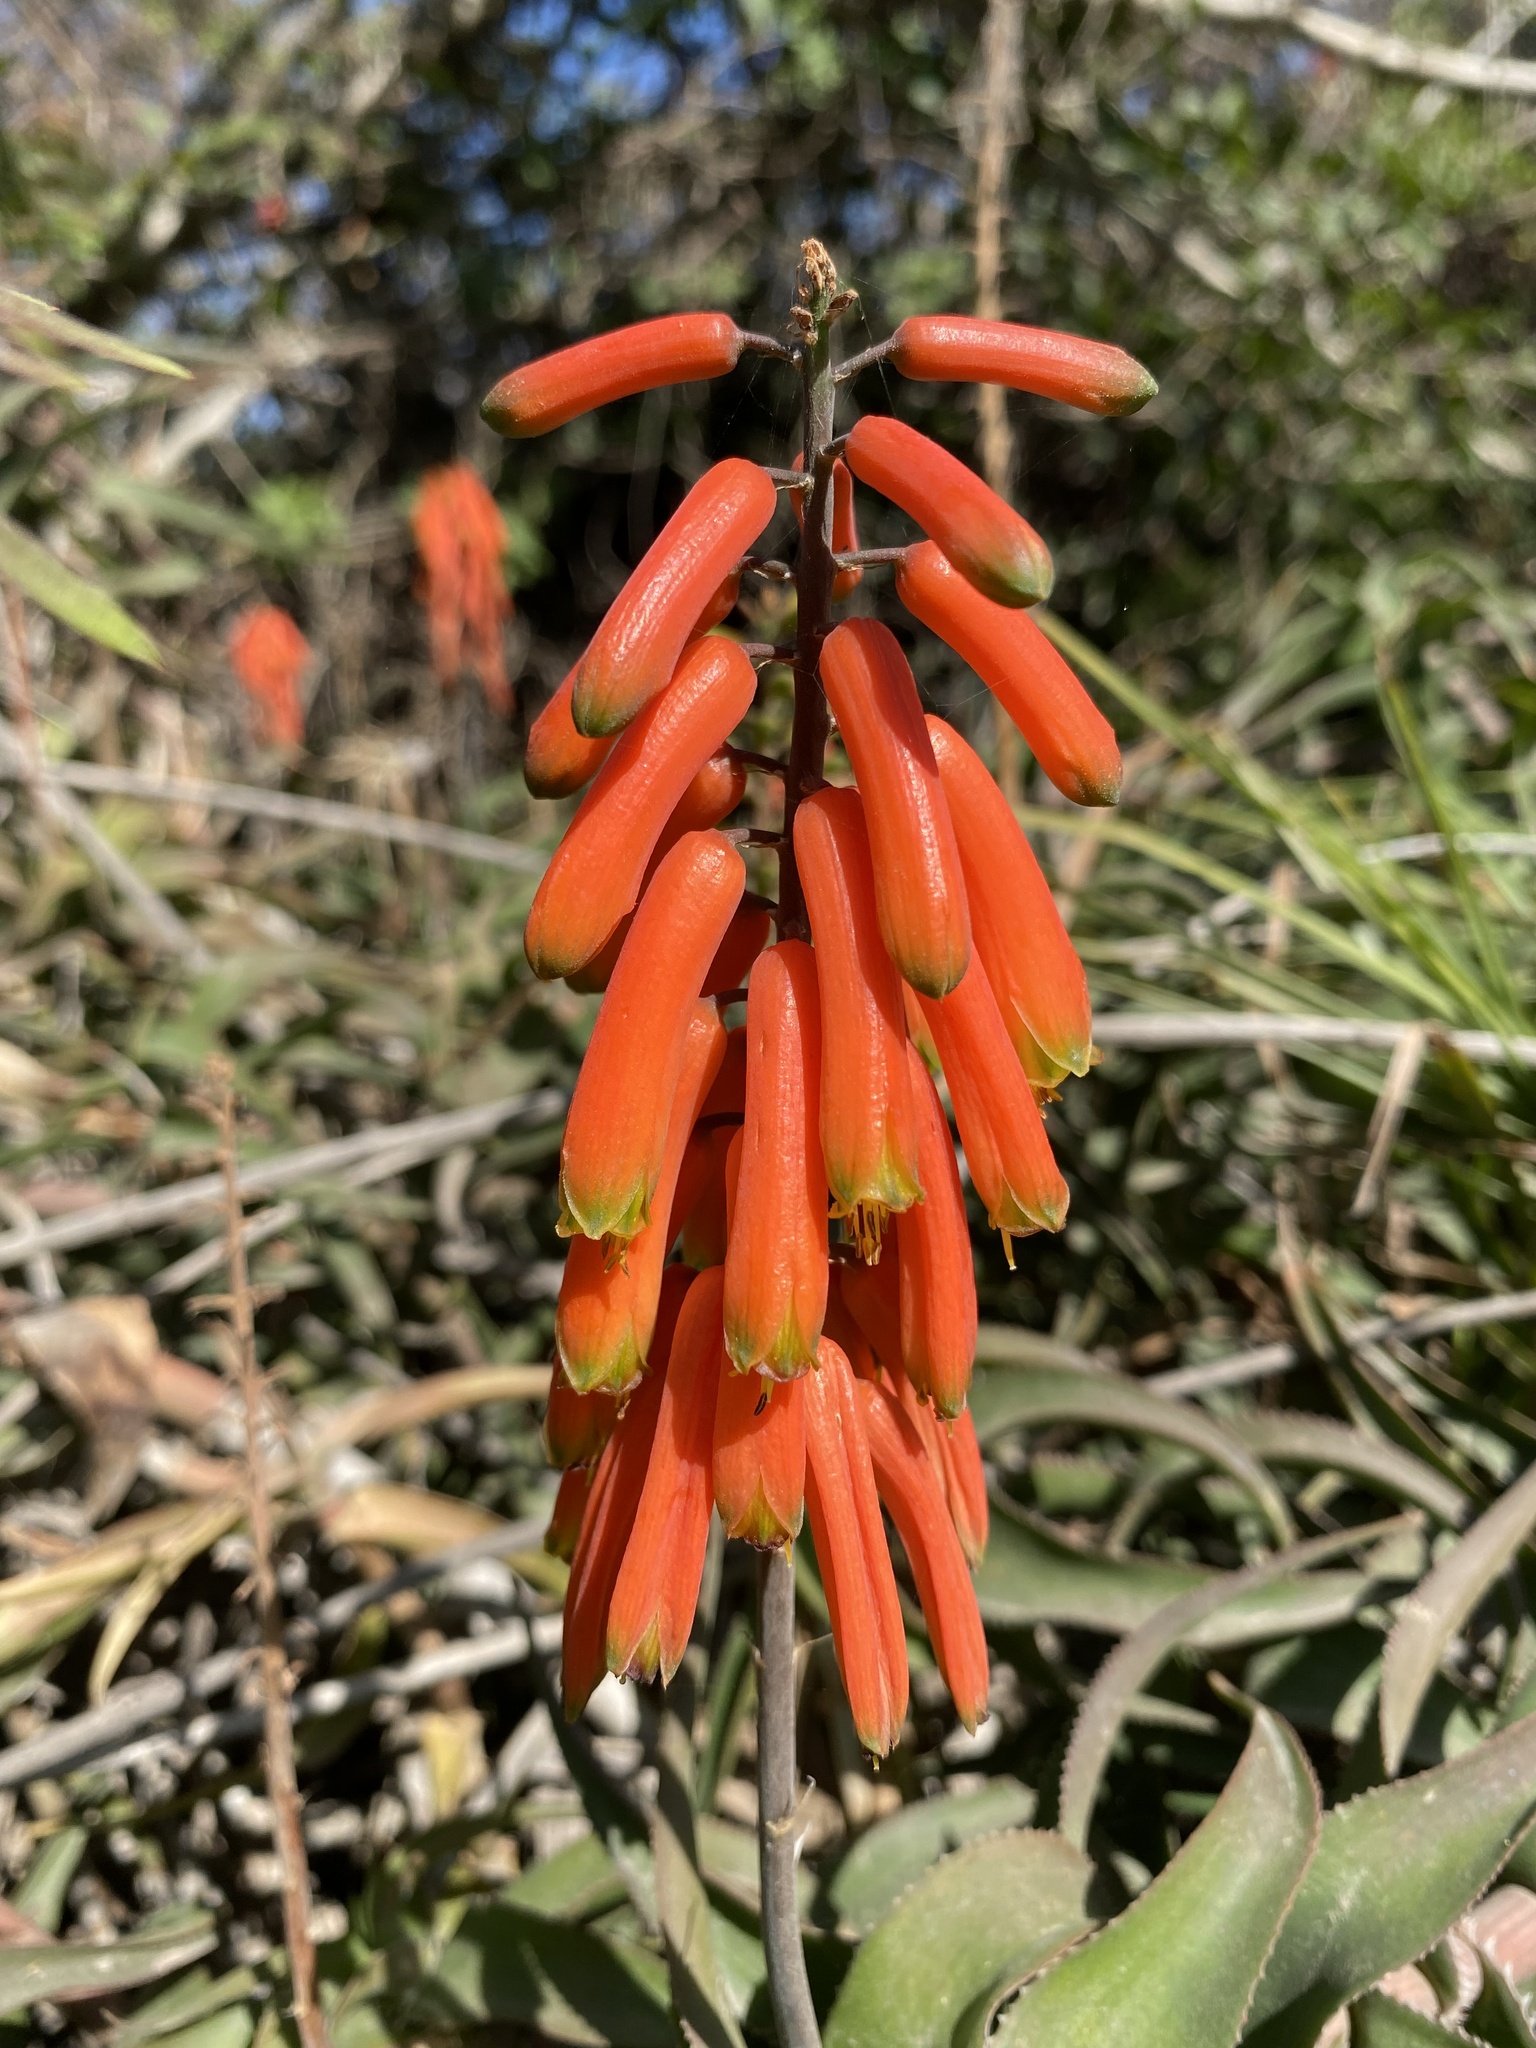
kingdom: Plantae
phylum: Tracheophyta
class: Liliopsida
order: Asparagales
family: Asphodelaceae
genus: Aloiampelos
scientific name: Aloiampelos ciliaris
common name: Climbing aloe
